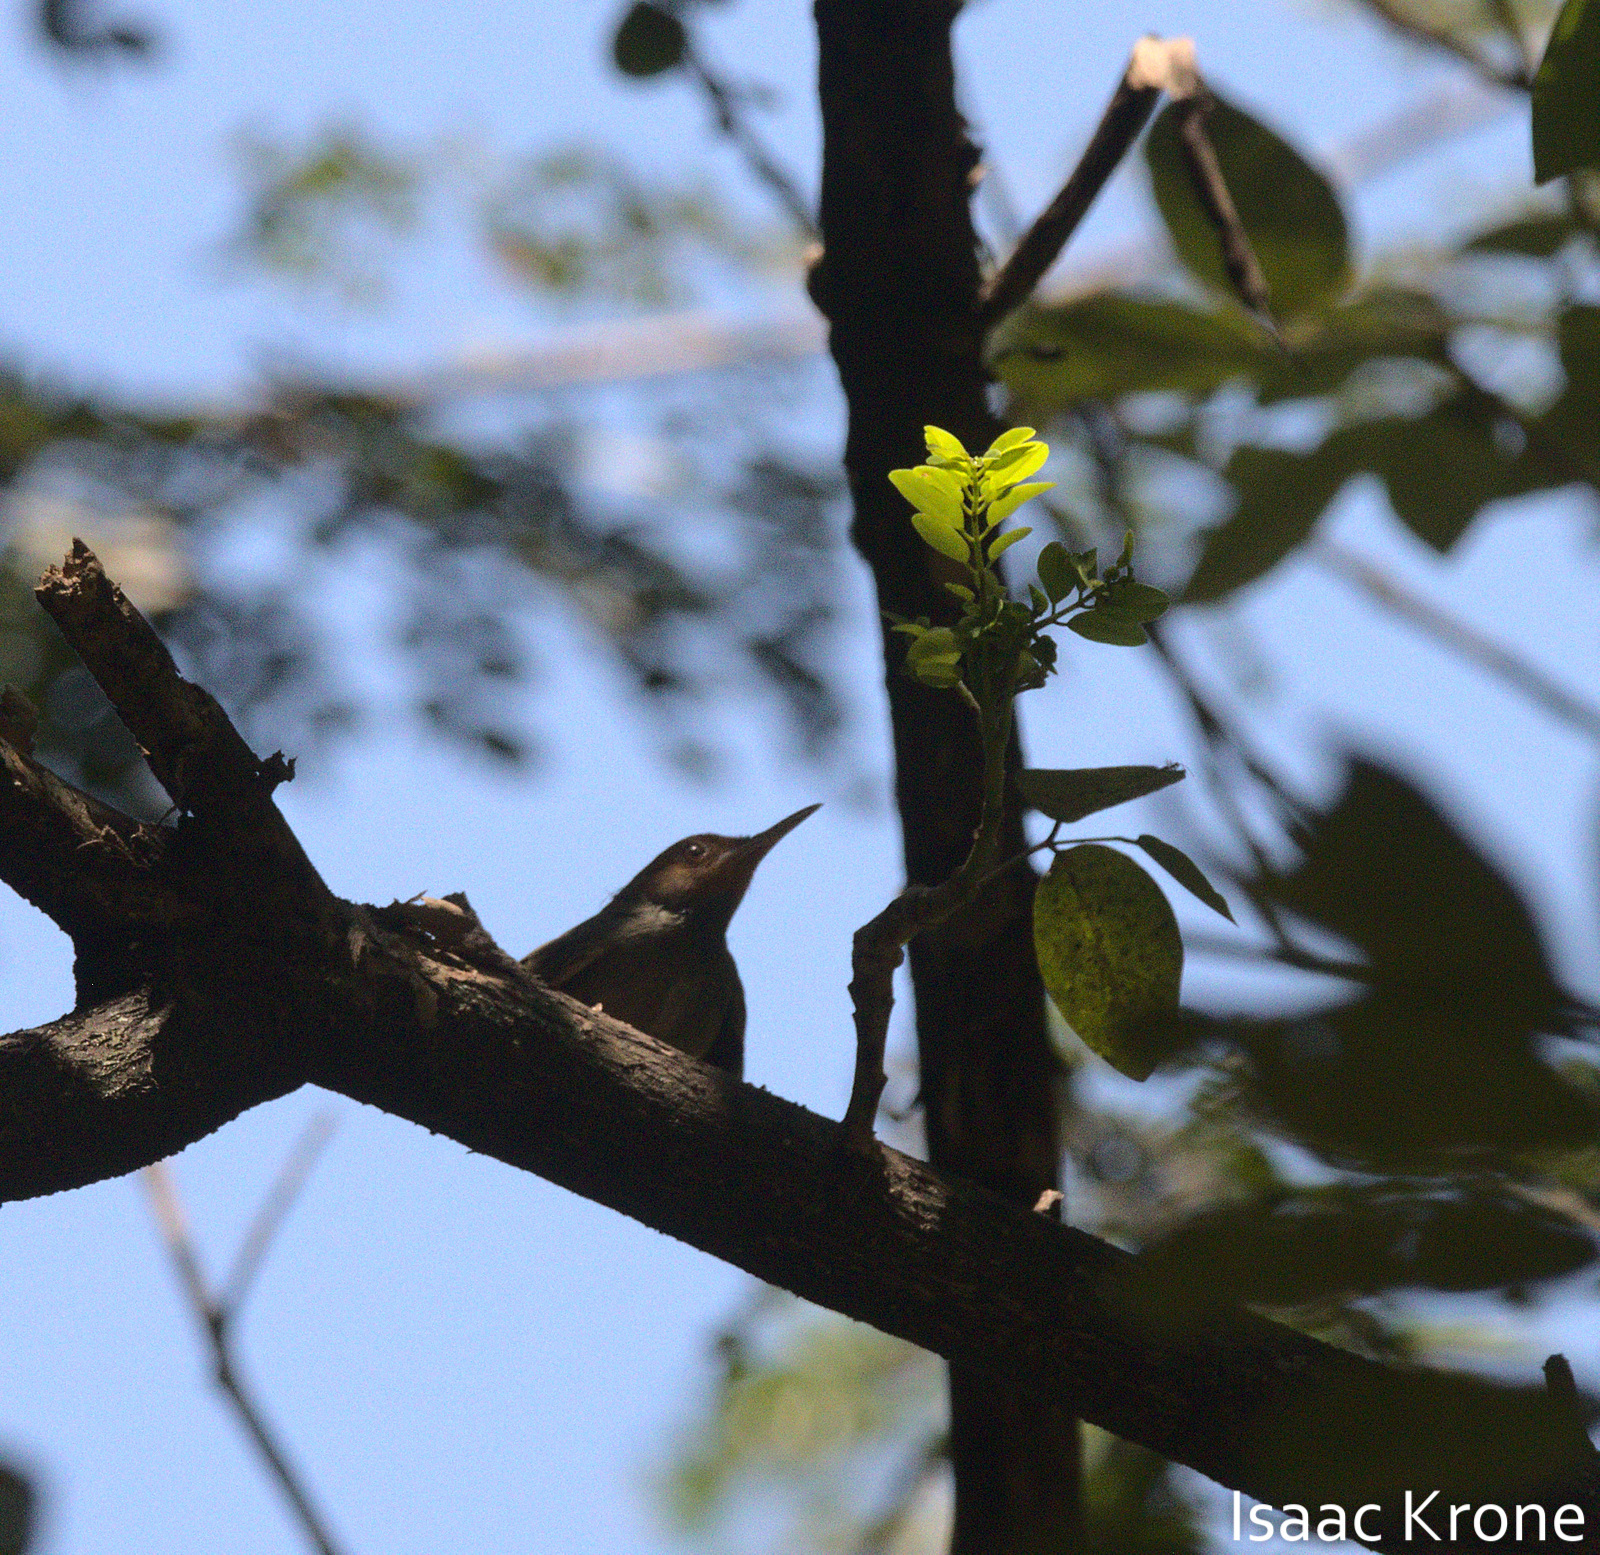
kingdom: Animalia
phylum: Chordata
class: Aves
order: Passeriformes
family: Cisticolidae
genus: Orthotomus
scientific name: Orthotomus sepium
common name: Olive-backed tailorbird
